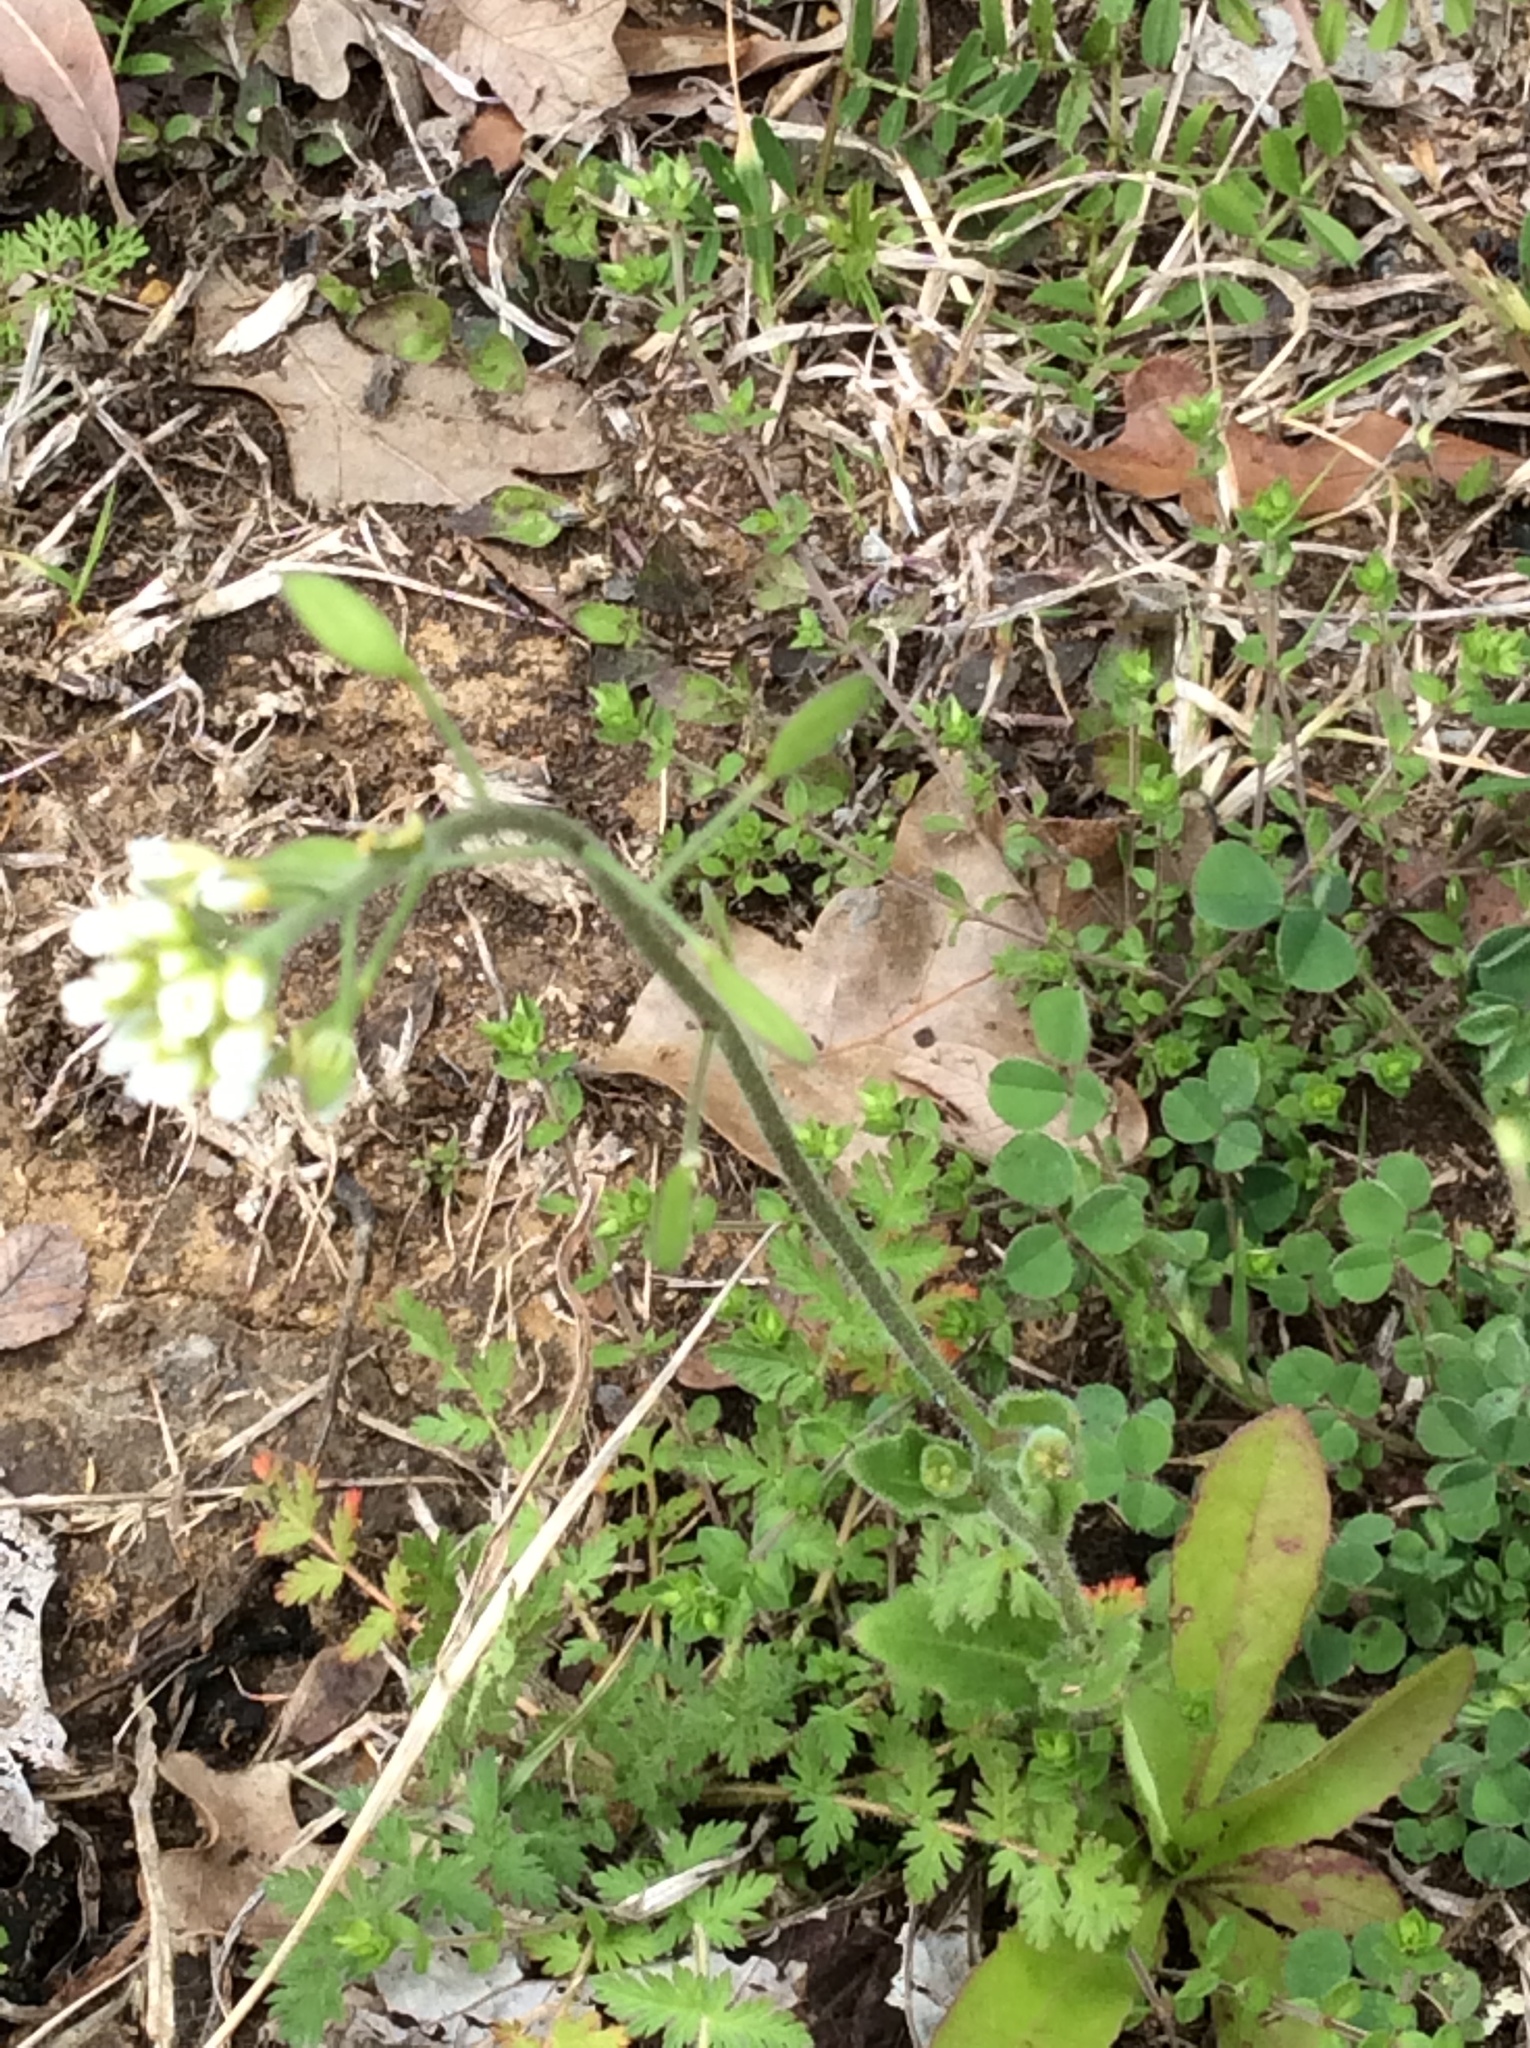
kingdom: Plantae
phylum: Tracheophyta
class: Magnoliopsida
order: Brassicales
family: Brassicaceae
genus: Tomostima
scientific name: Tomostima platycarpa
